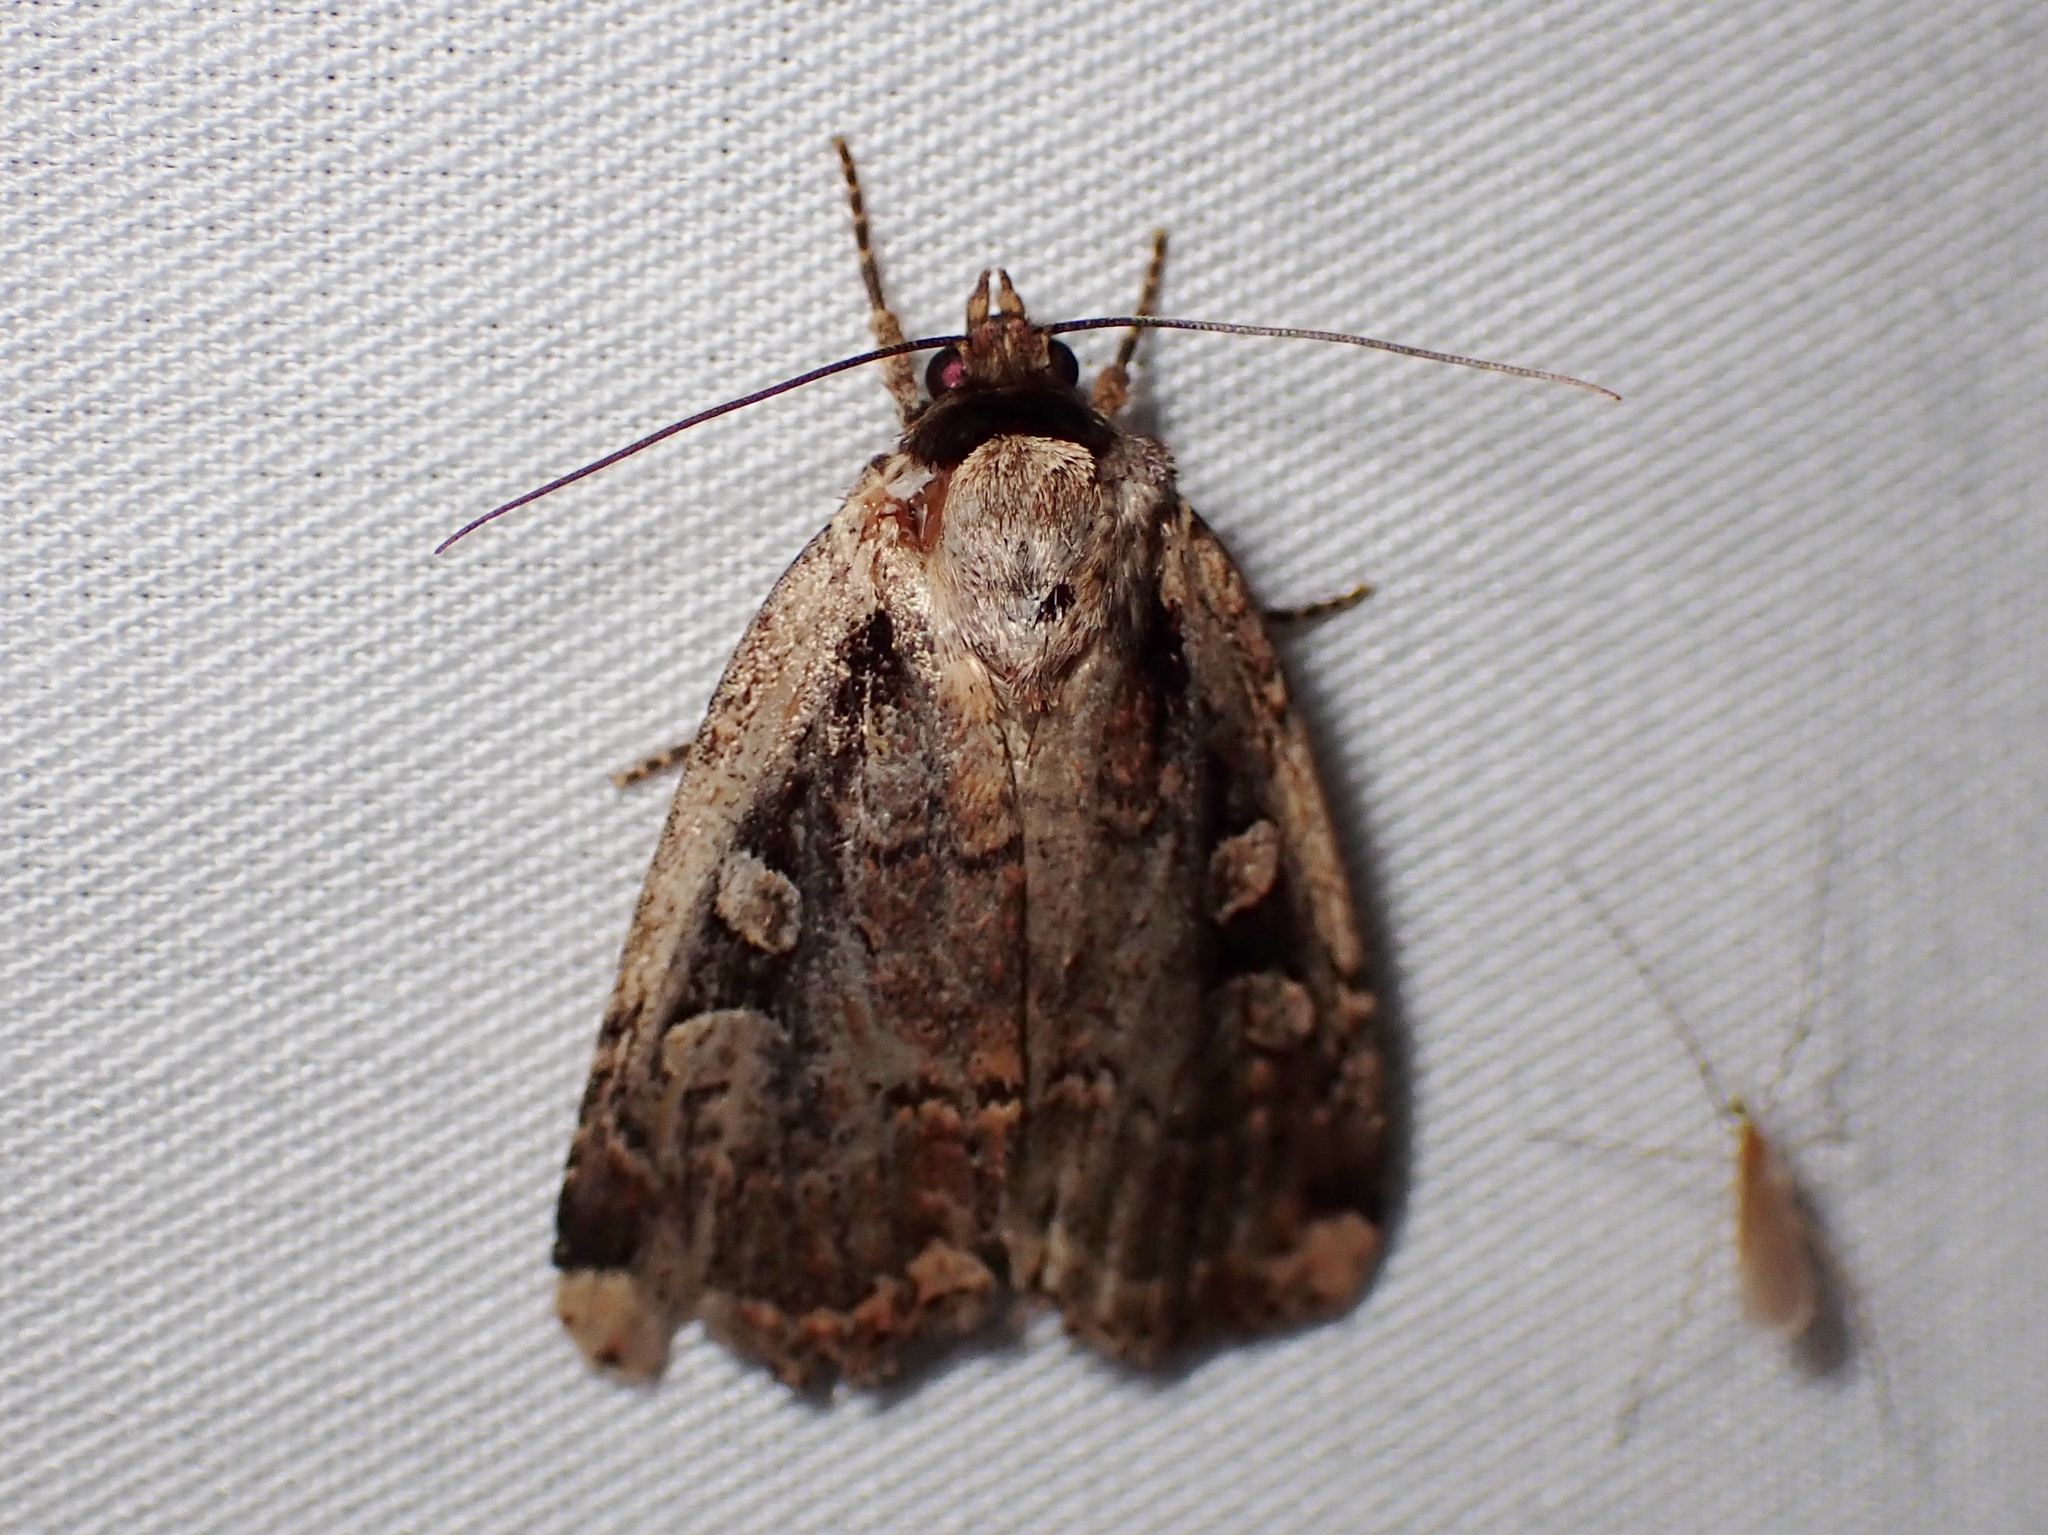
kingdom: Animalia
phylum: Arthropoda
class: Insecta
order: Lepidoptera
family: Noctuidae
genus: Eueretagrotis
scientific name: Eueretagrotis sigmoides
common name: Sigmoid dart
